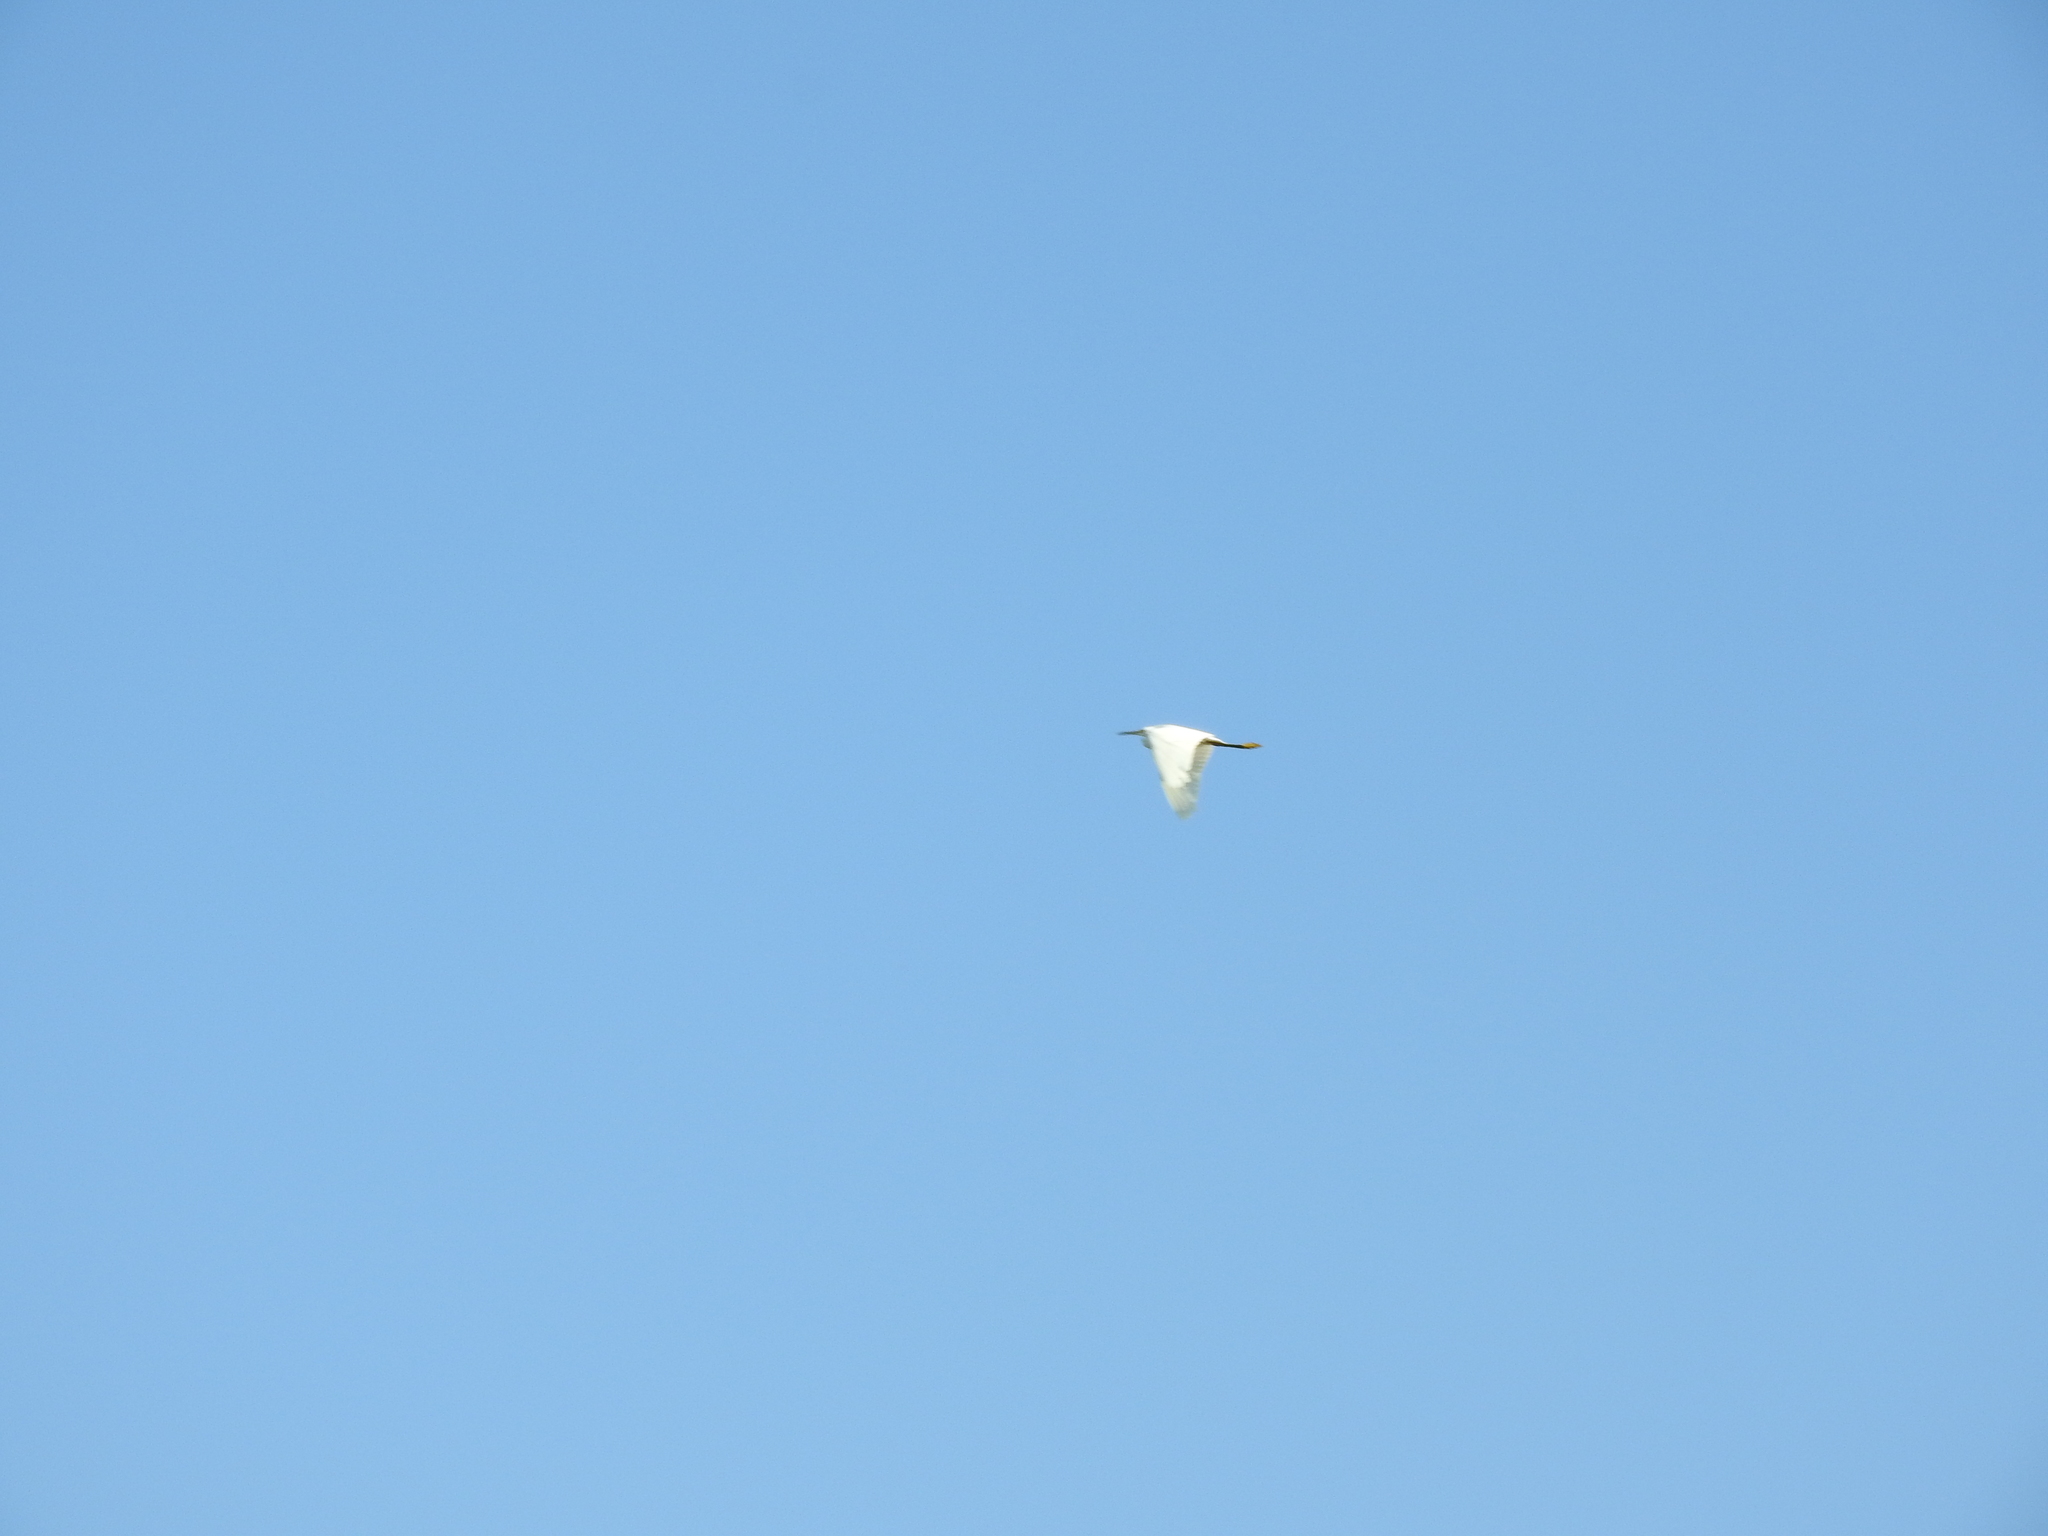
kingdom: Animalia
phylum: Chordata
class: Aves
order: Pelecaniformes
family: Ardeidae
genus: Egretta
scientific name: Egretta thula
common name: Snowy egret
